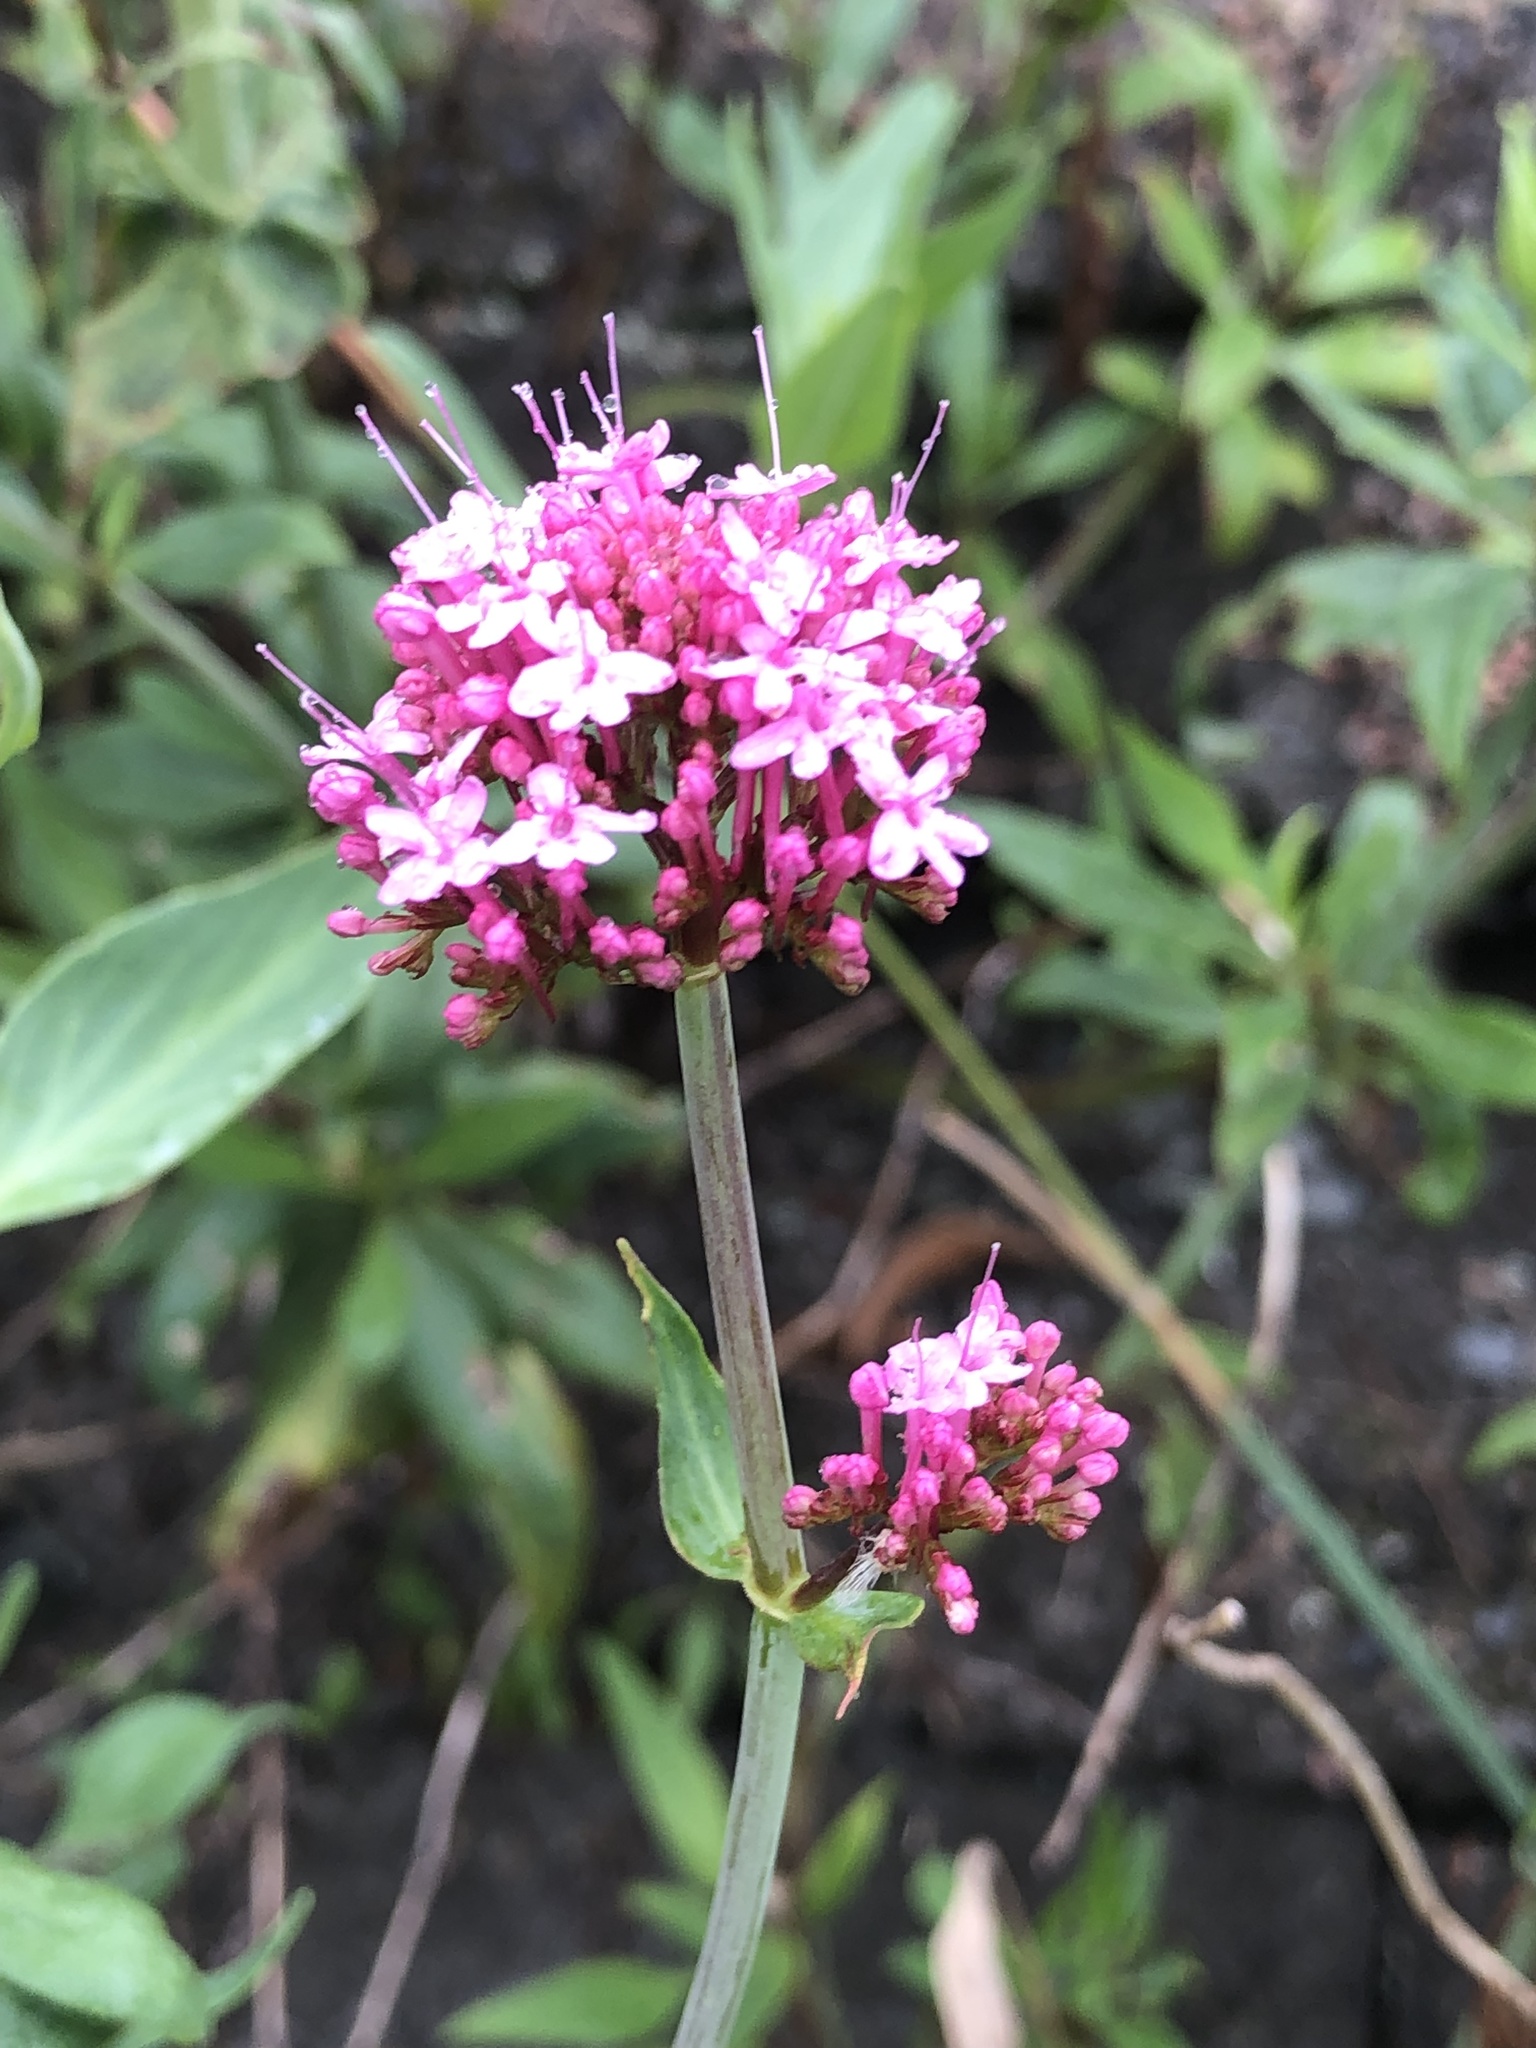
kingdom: Plantae
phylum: Tracheophyta
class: Magnoliopsida
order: Dipsacales
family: Caprifoliaceae
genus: Centranthus
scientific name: Centranthus ruber
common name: Red valerian
